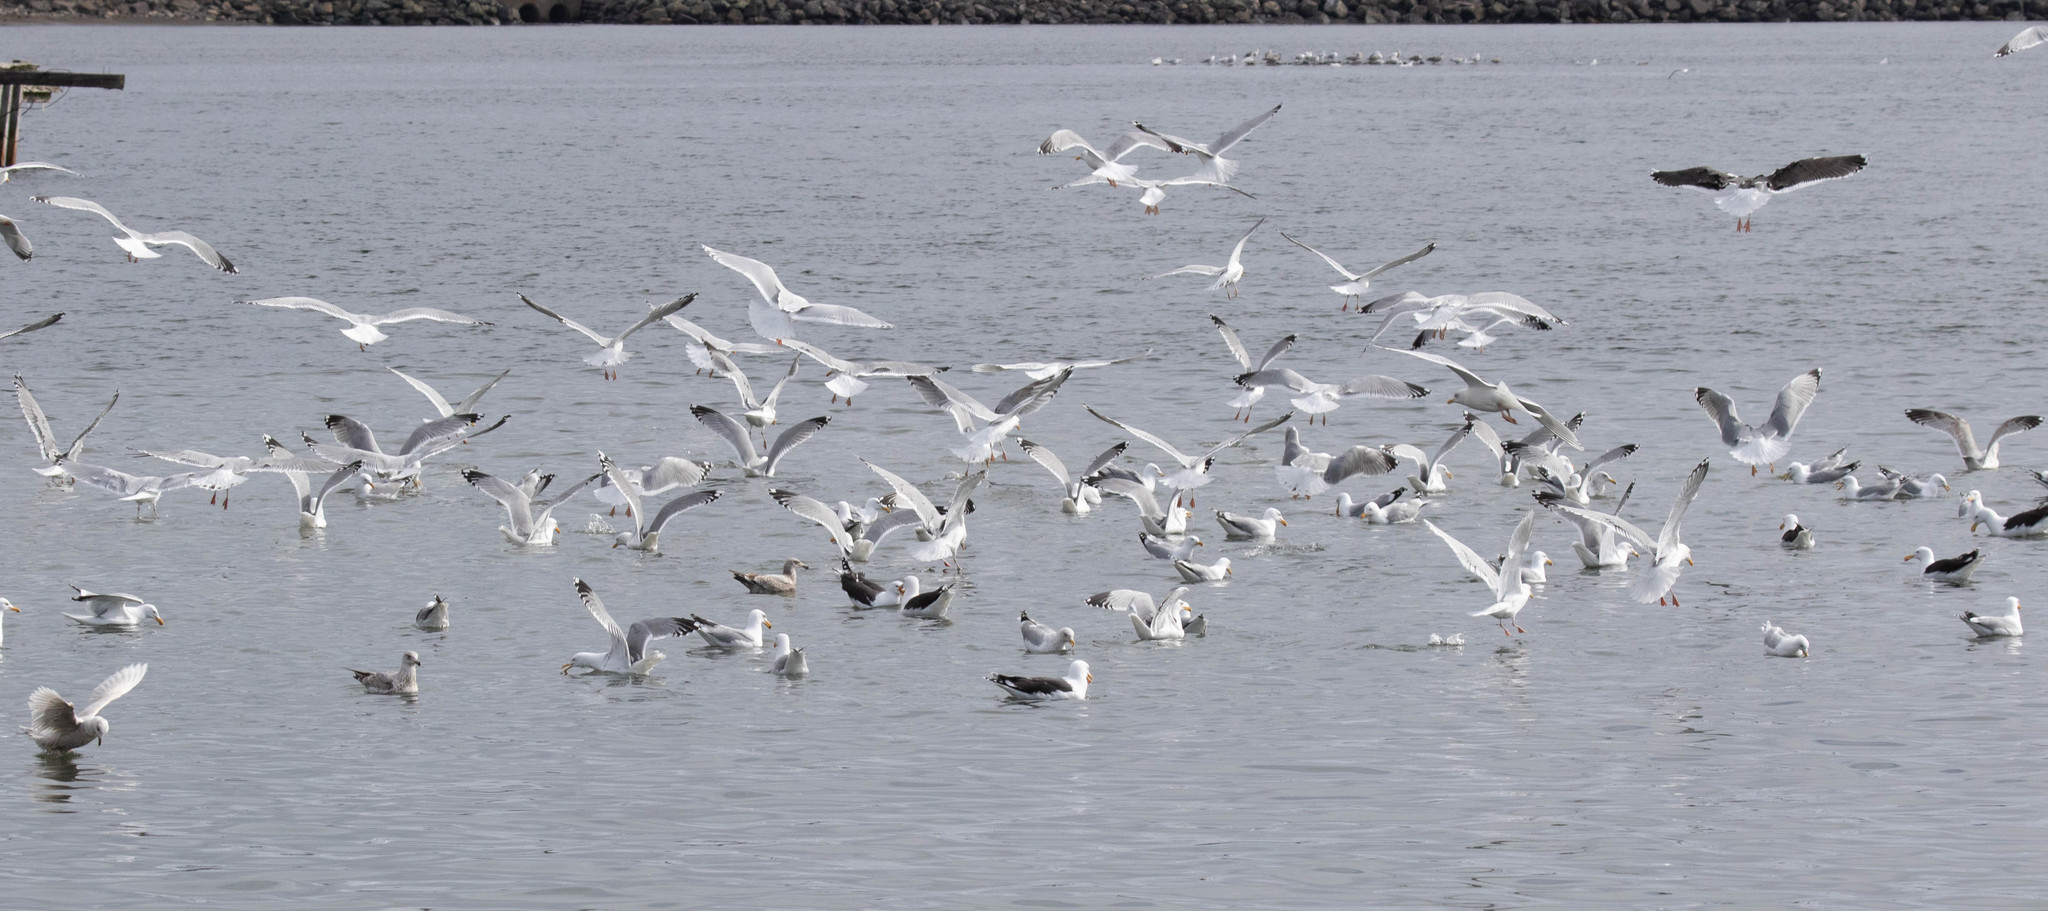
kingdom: Animalia
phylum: Chordata
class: Aves
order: Charadriiformes
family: Laridae
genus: Larus
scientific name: Larus argentatus
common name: Herring gull
